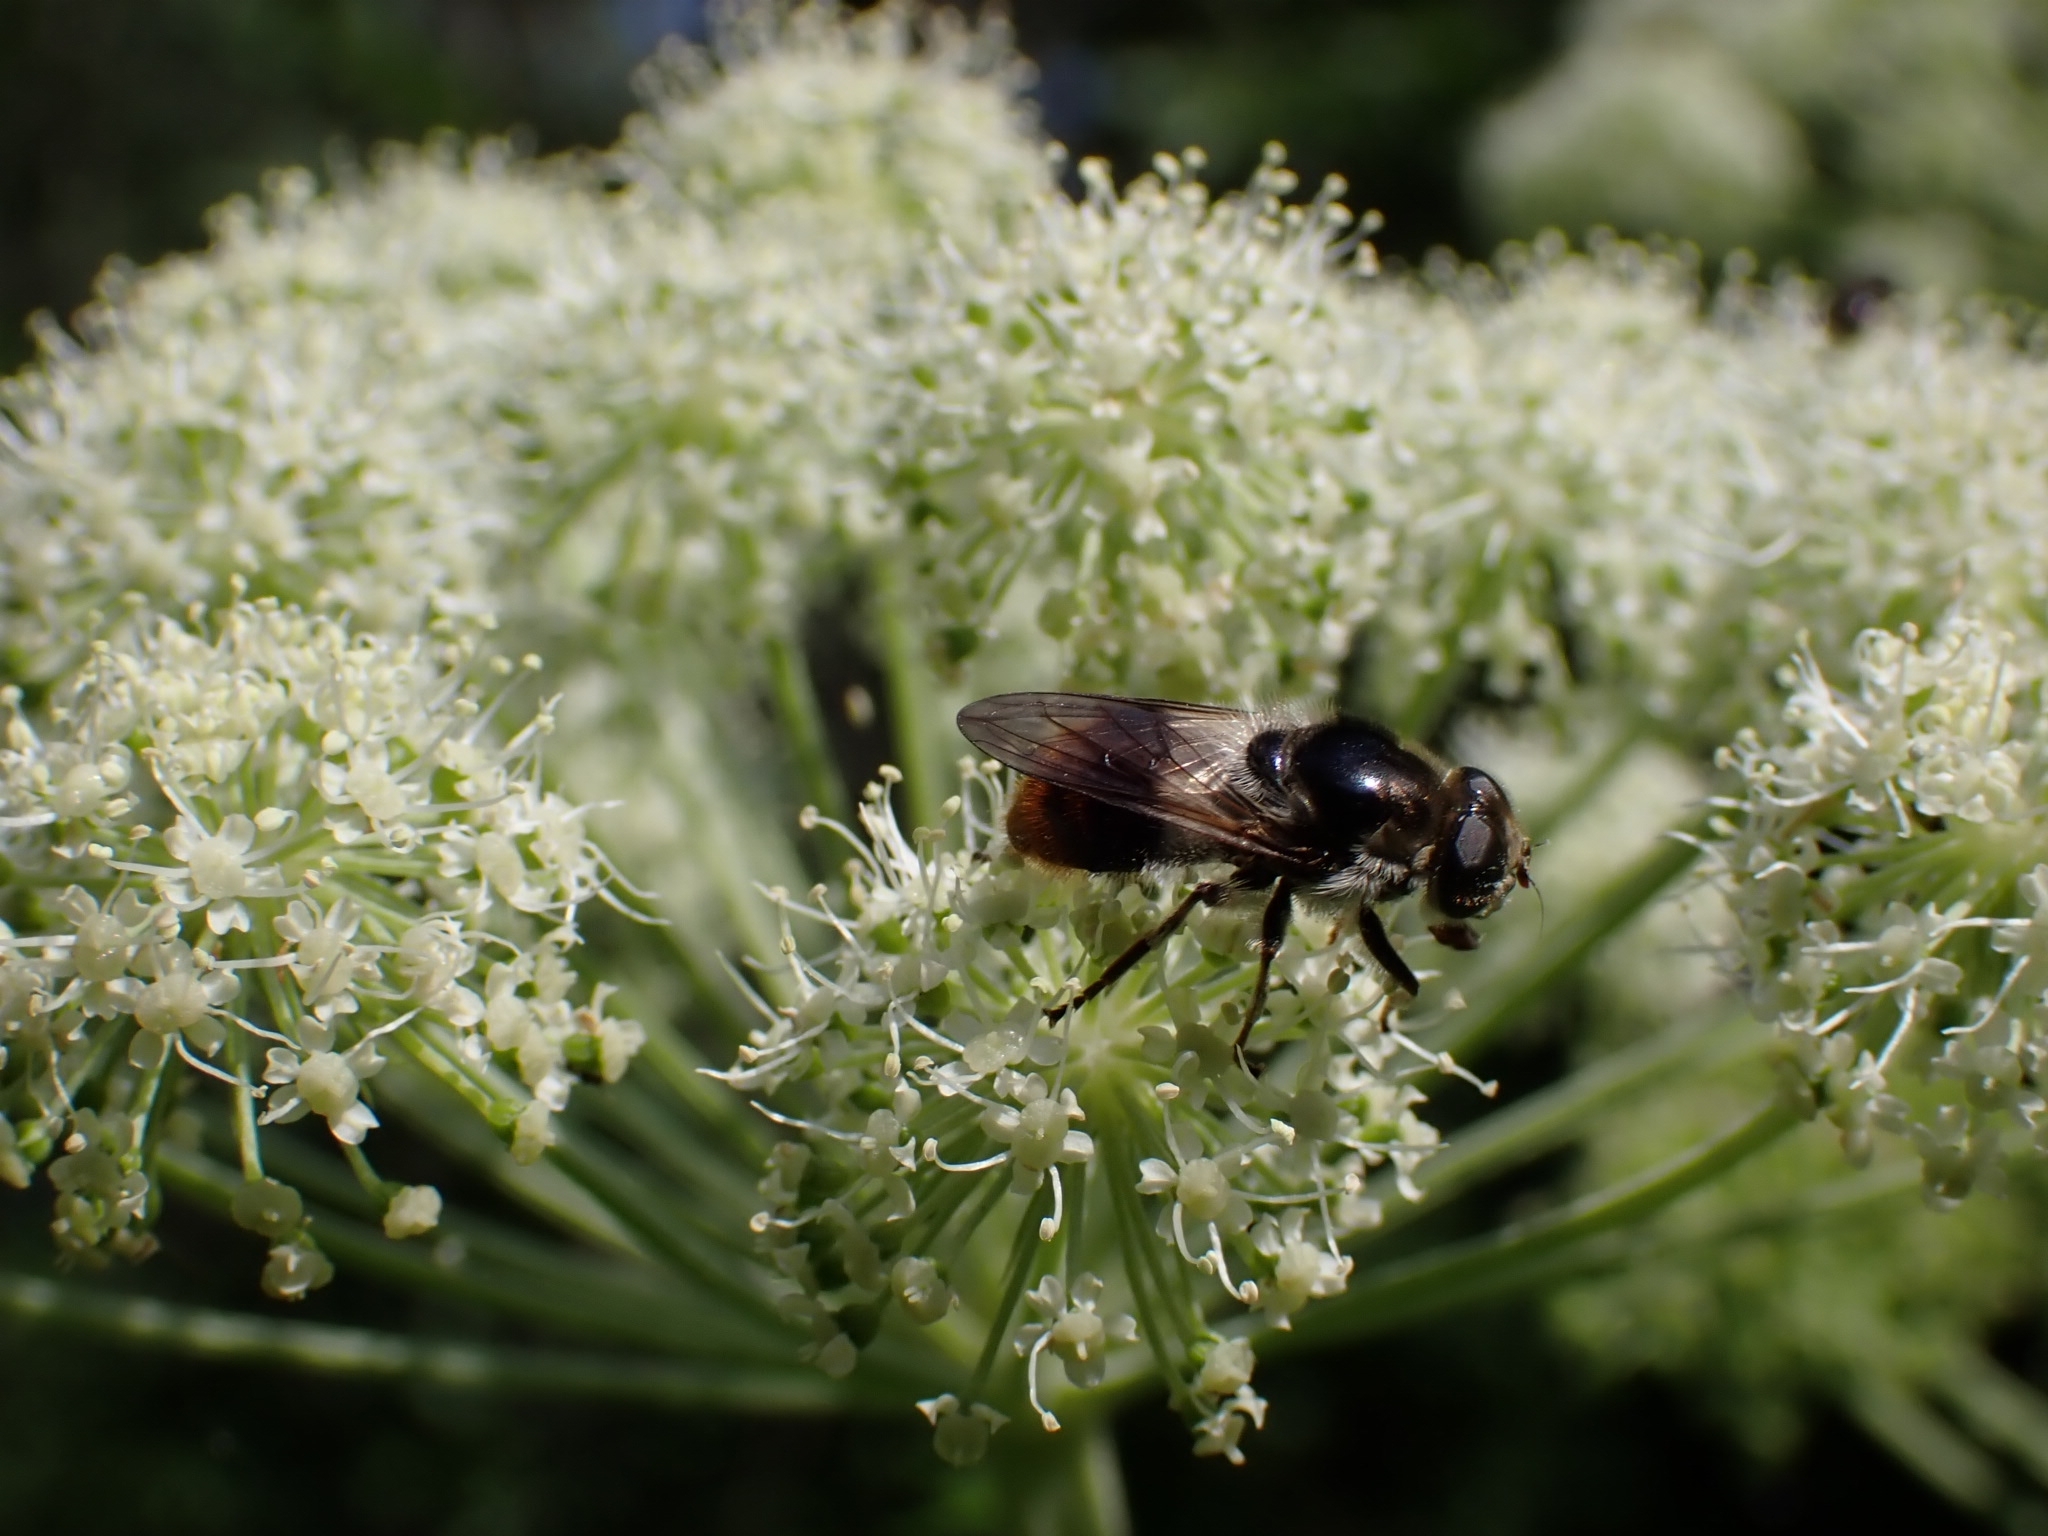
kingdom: Animalia
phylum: Arthropoda
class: Insecta
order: Diptera
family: Syrphidae
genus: Cheilosia
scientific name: Cheilosia illustrata
